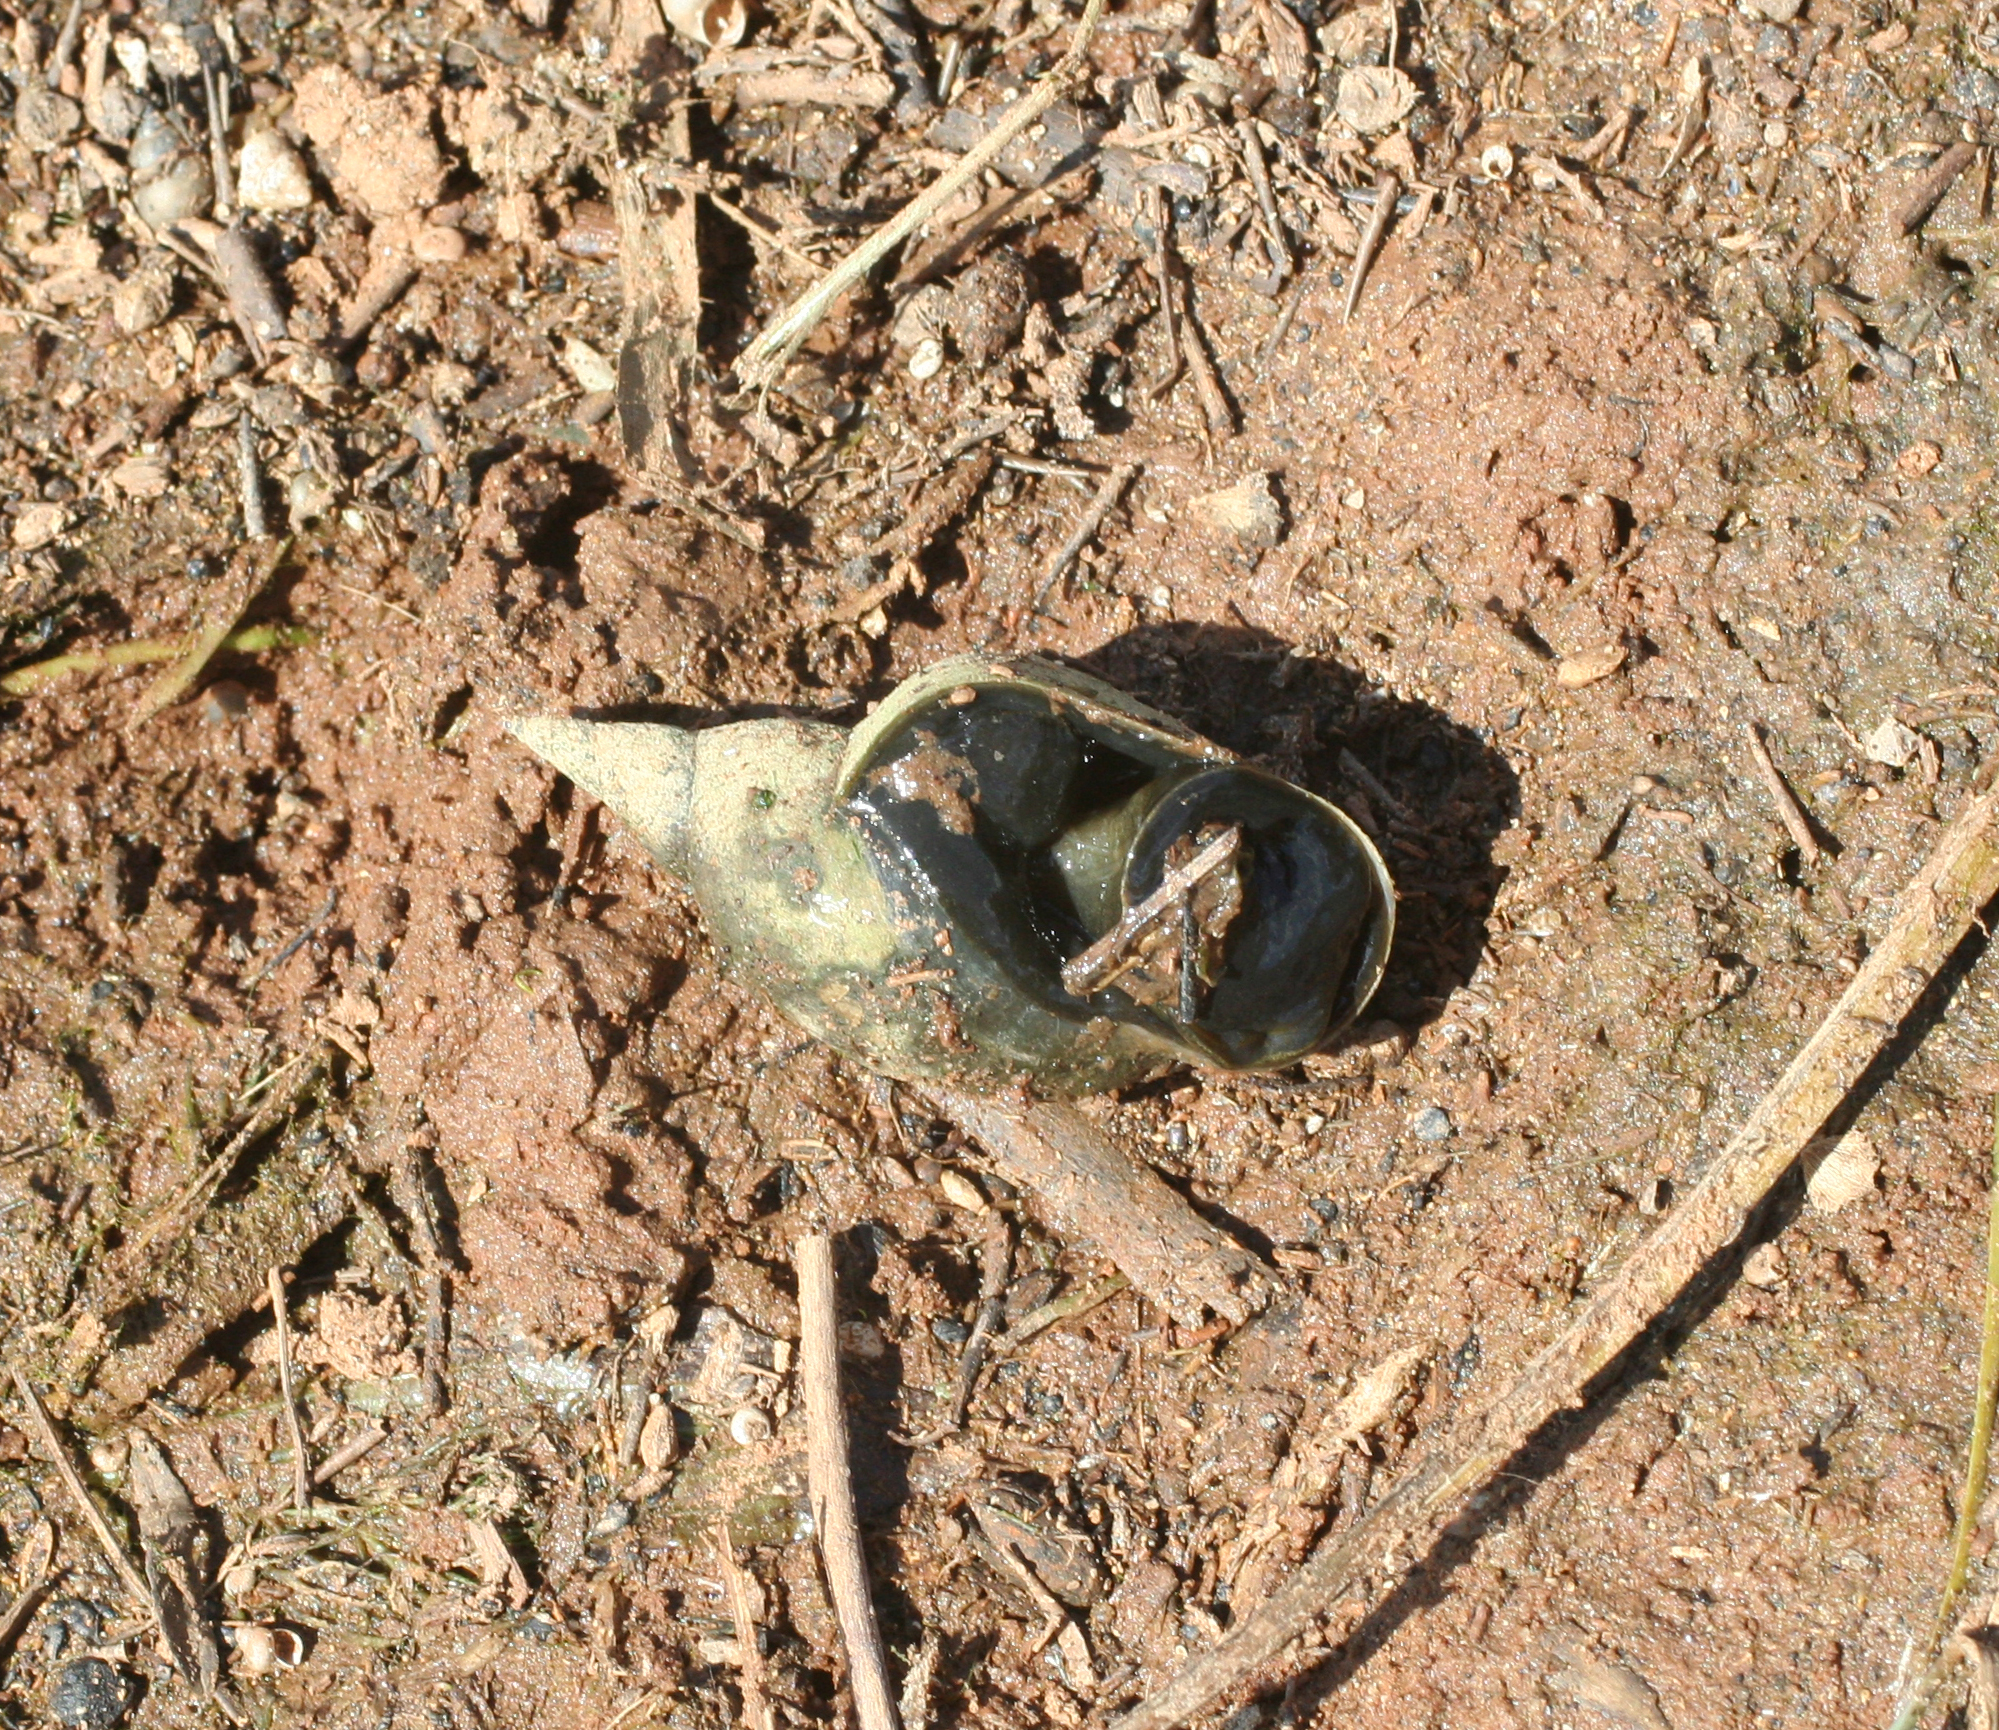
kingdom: Animalia
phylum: Mollusca
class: Gastropoda
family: Lymnaeidae
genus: Lymnaea
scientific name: Lymnaea stagnalis
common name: Great pond snail
